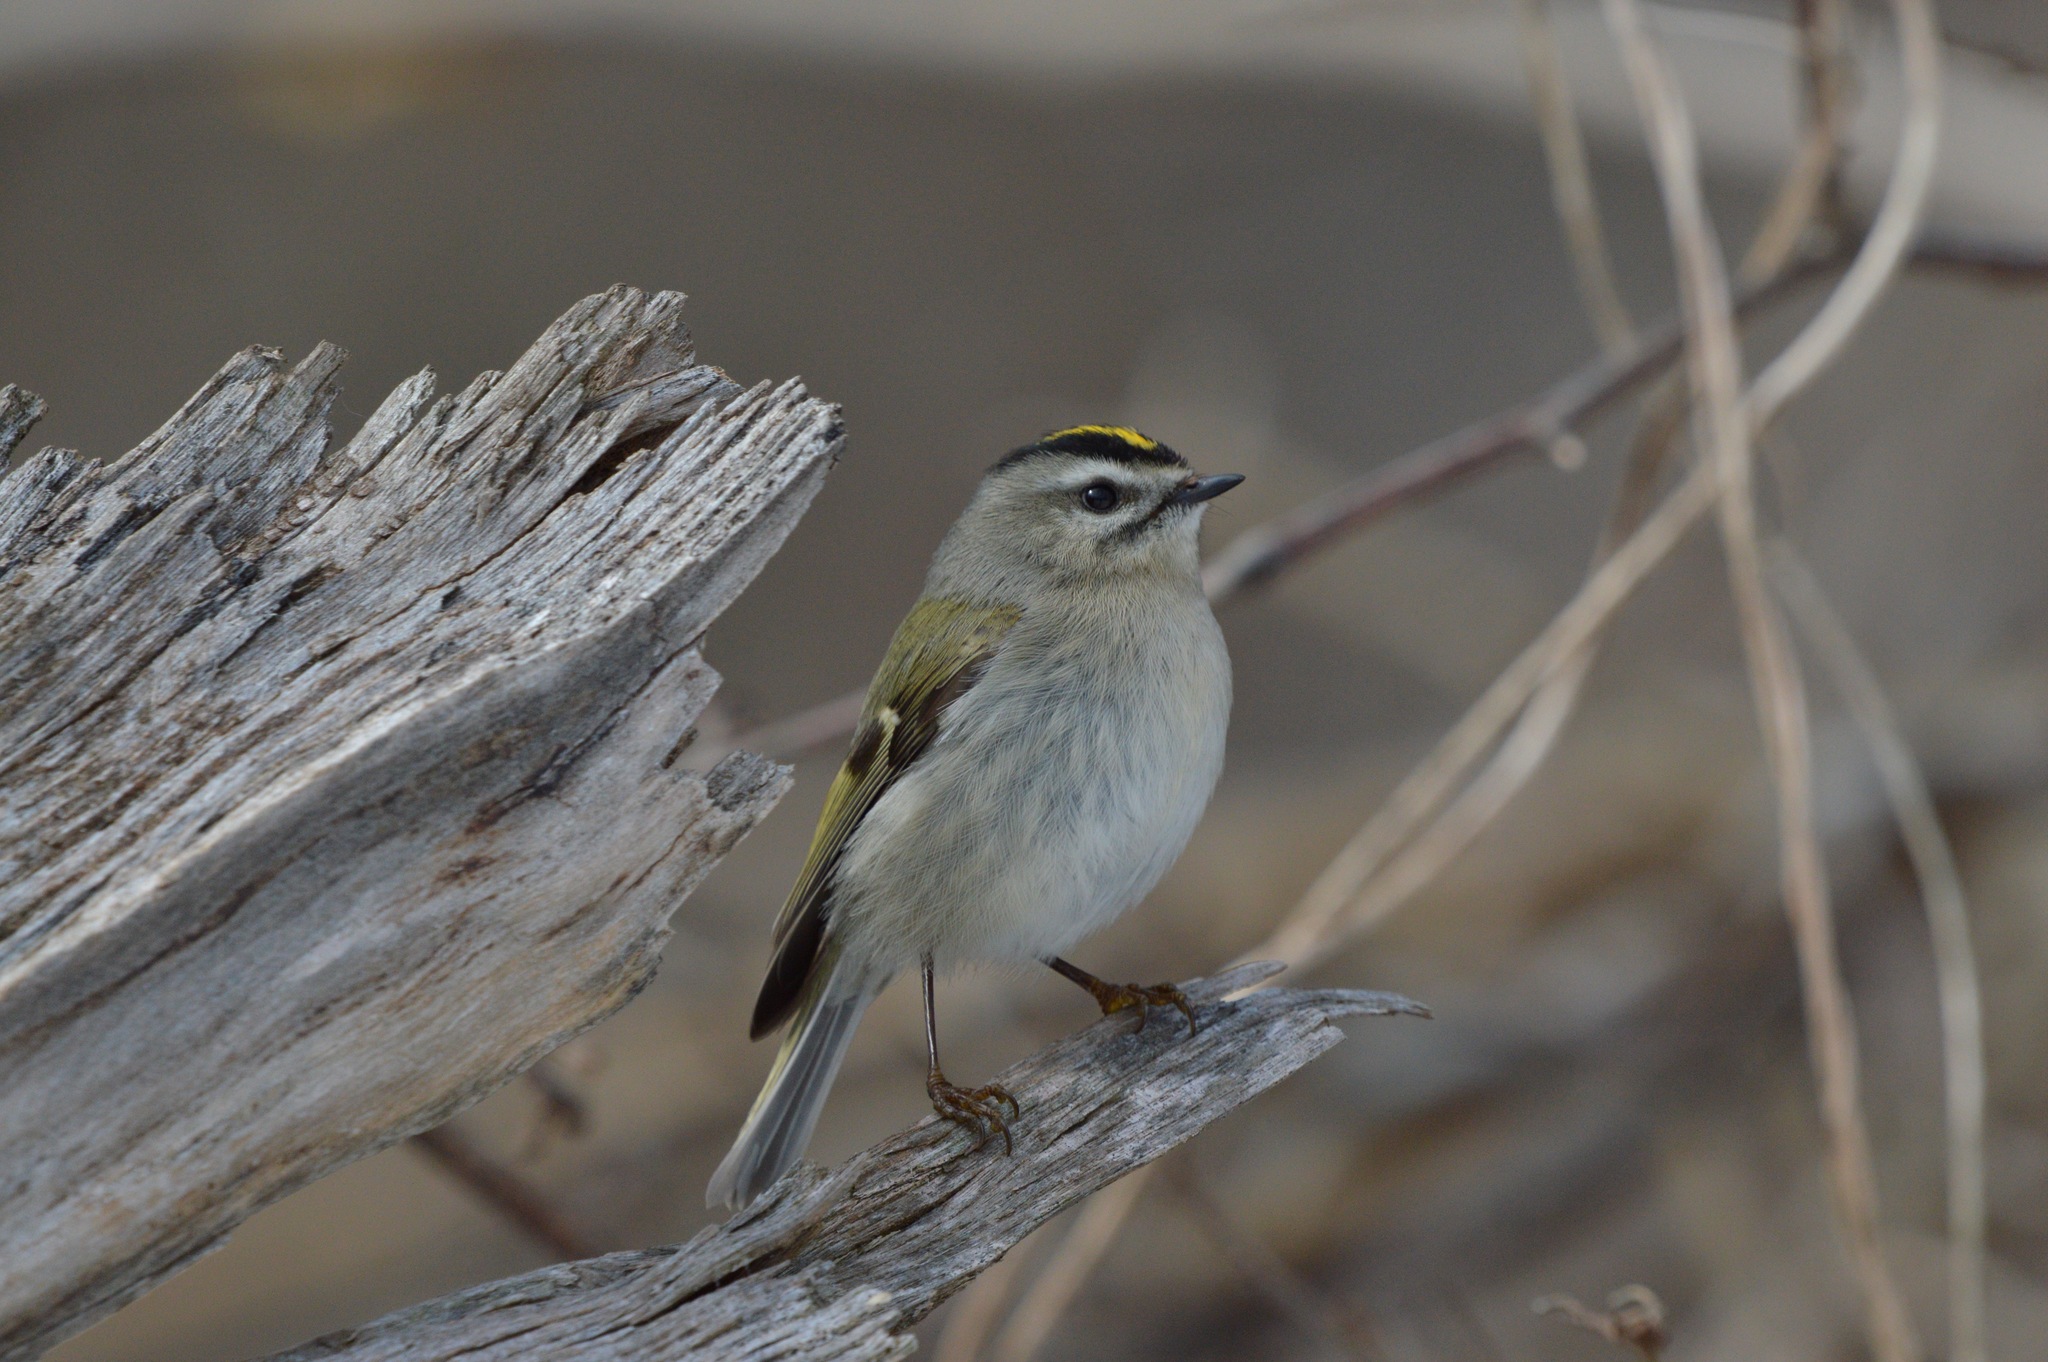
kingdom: Animalia
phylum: Chordata
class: Aves
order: Passeriformes
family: Regulidae
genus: Regulus
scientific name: Regulus satrapa
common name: Golden-crowned kinglet
